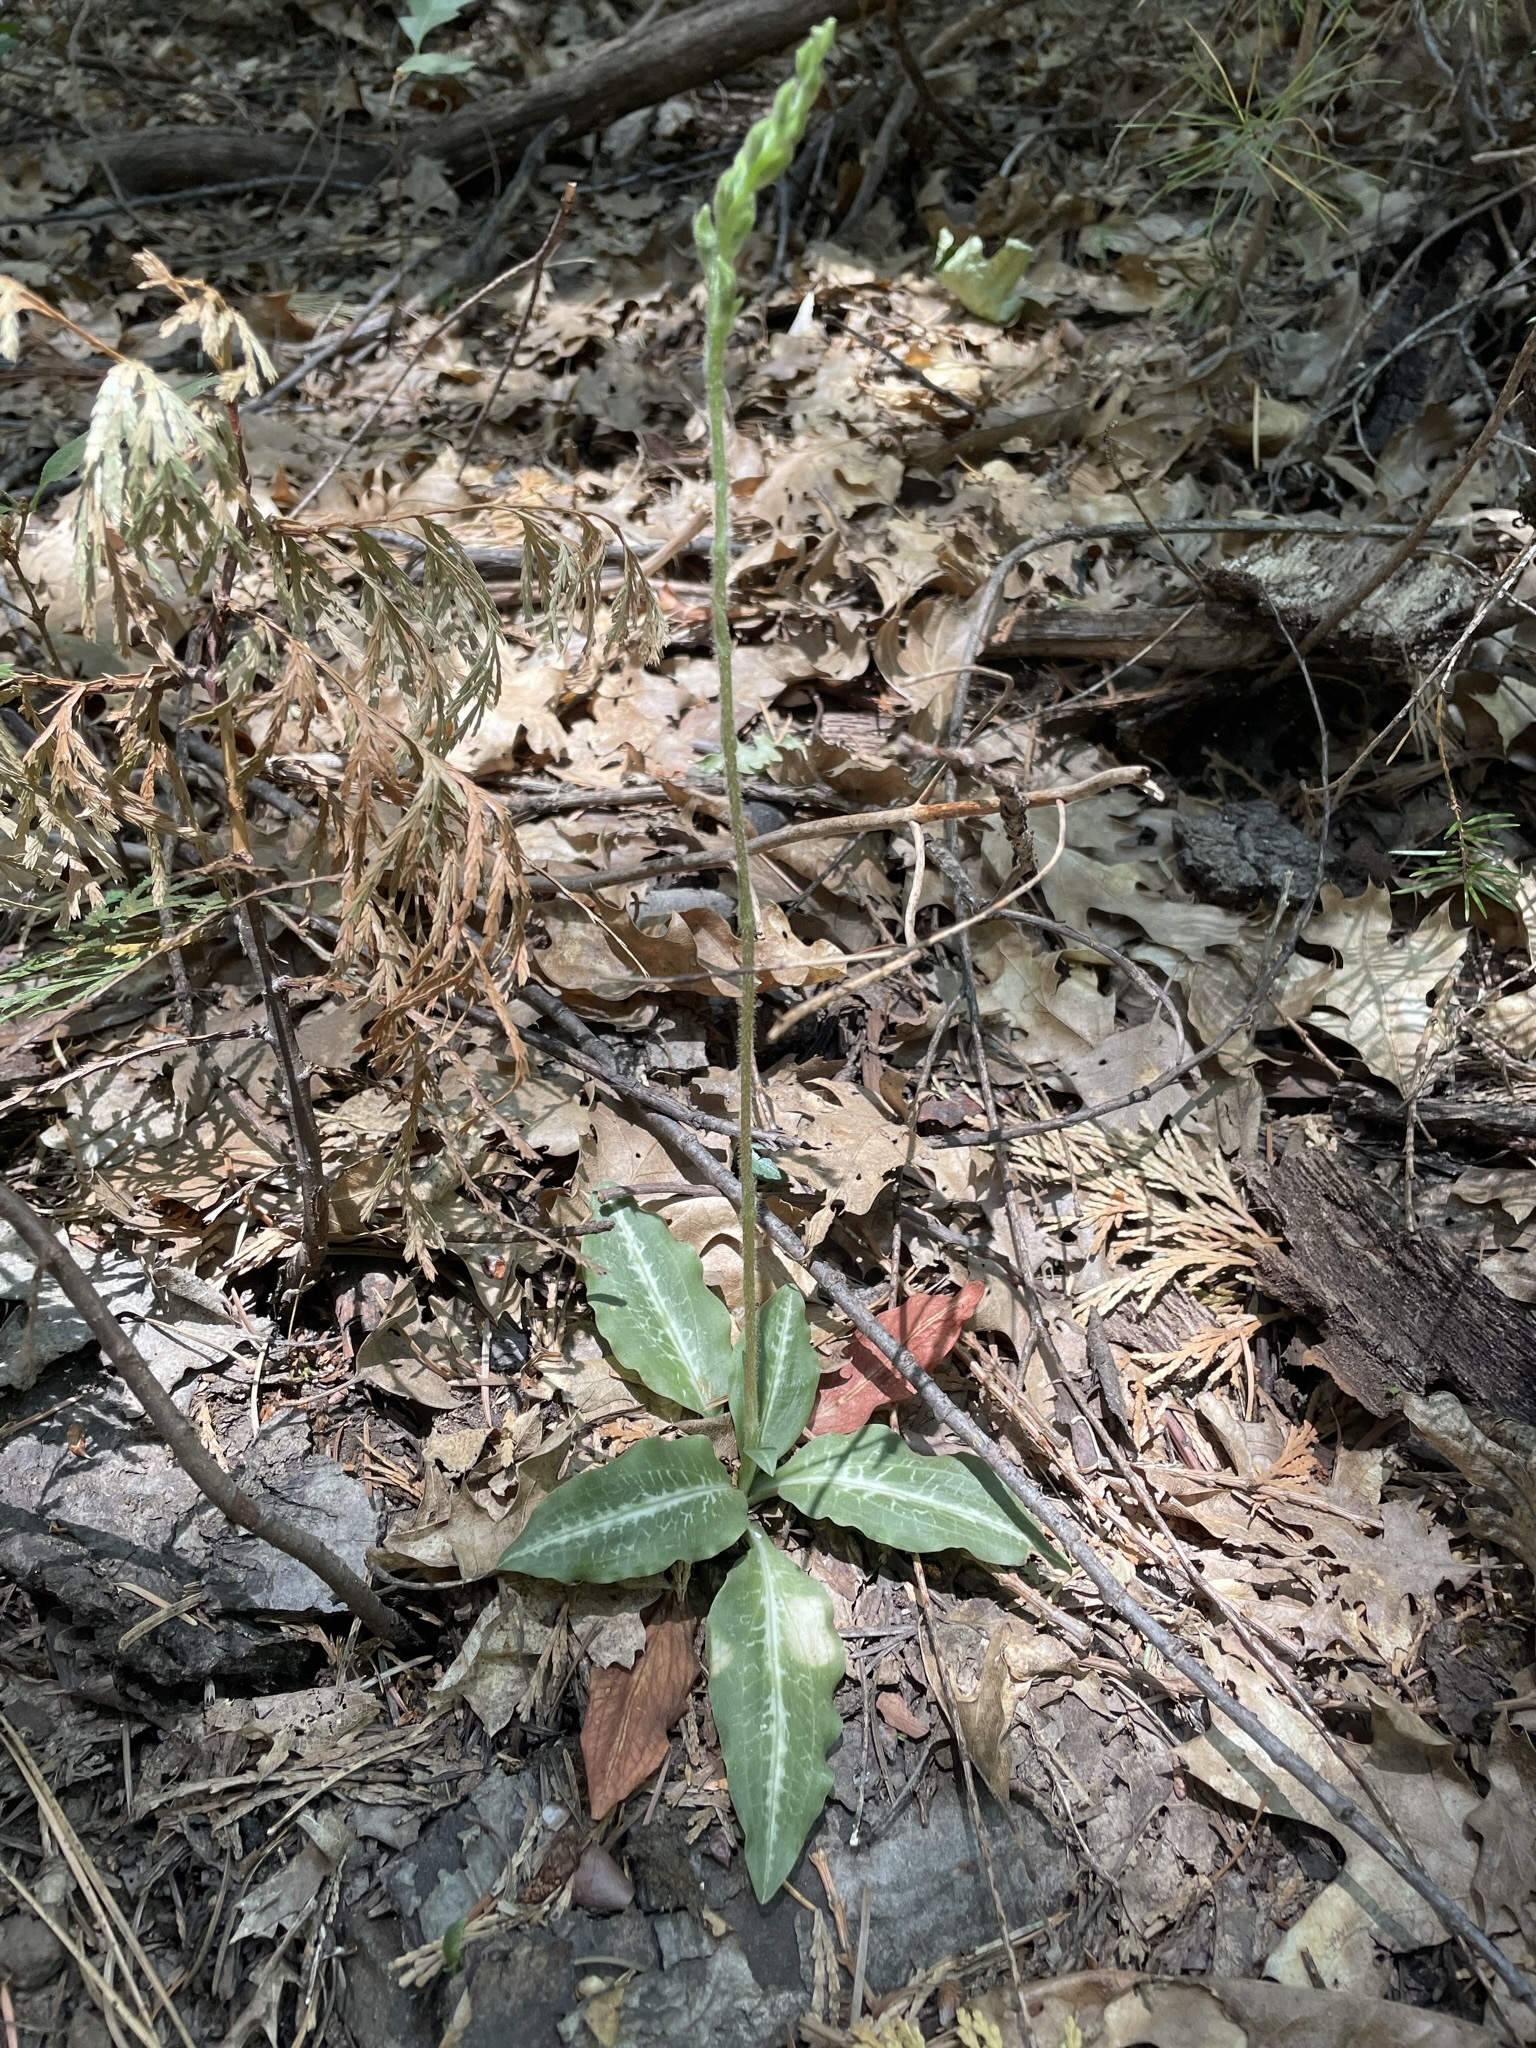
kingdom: Plantae
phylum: Tracheophyta
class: Liliopsida
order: Asparagales
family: Orchidaceae
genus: Goodyera
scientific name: Goodyera oblongifolia
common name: Giant rattlesnake-plantain
